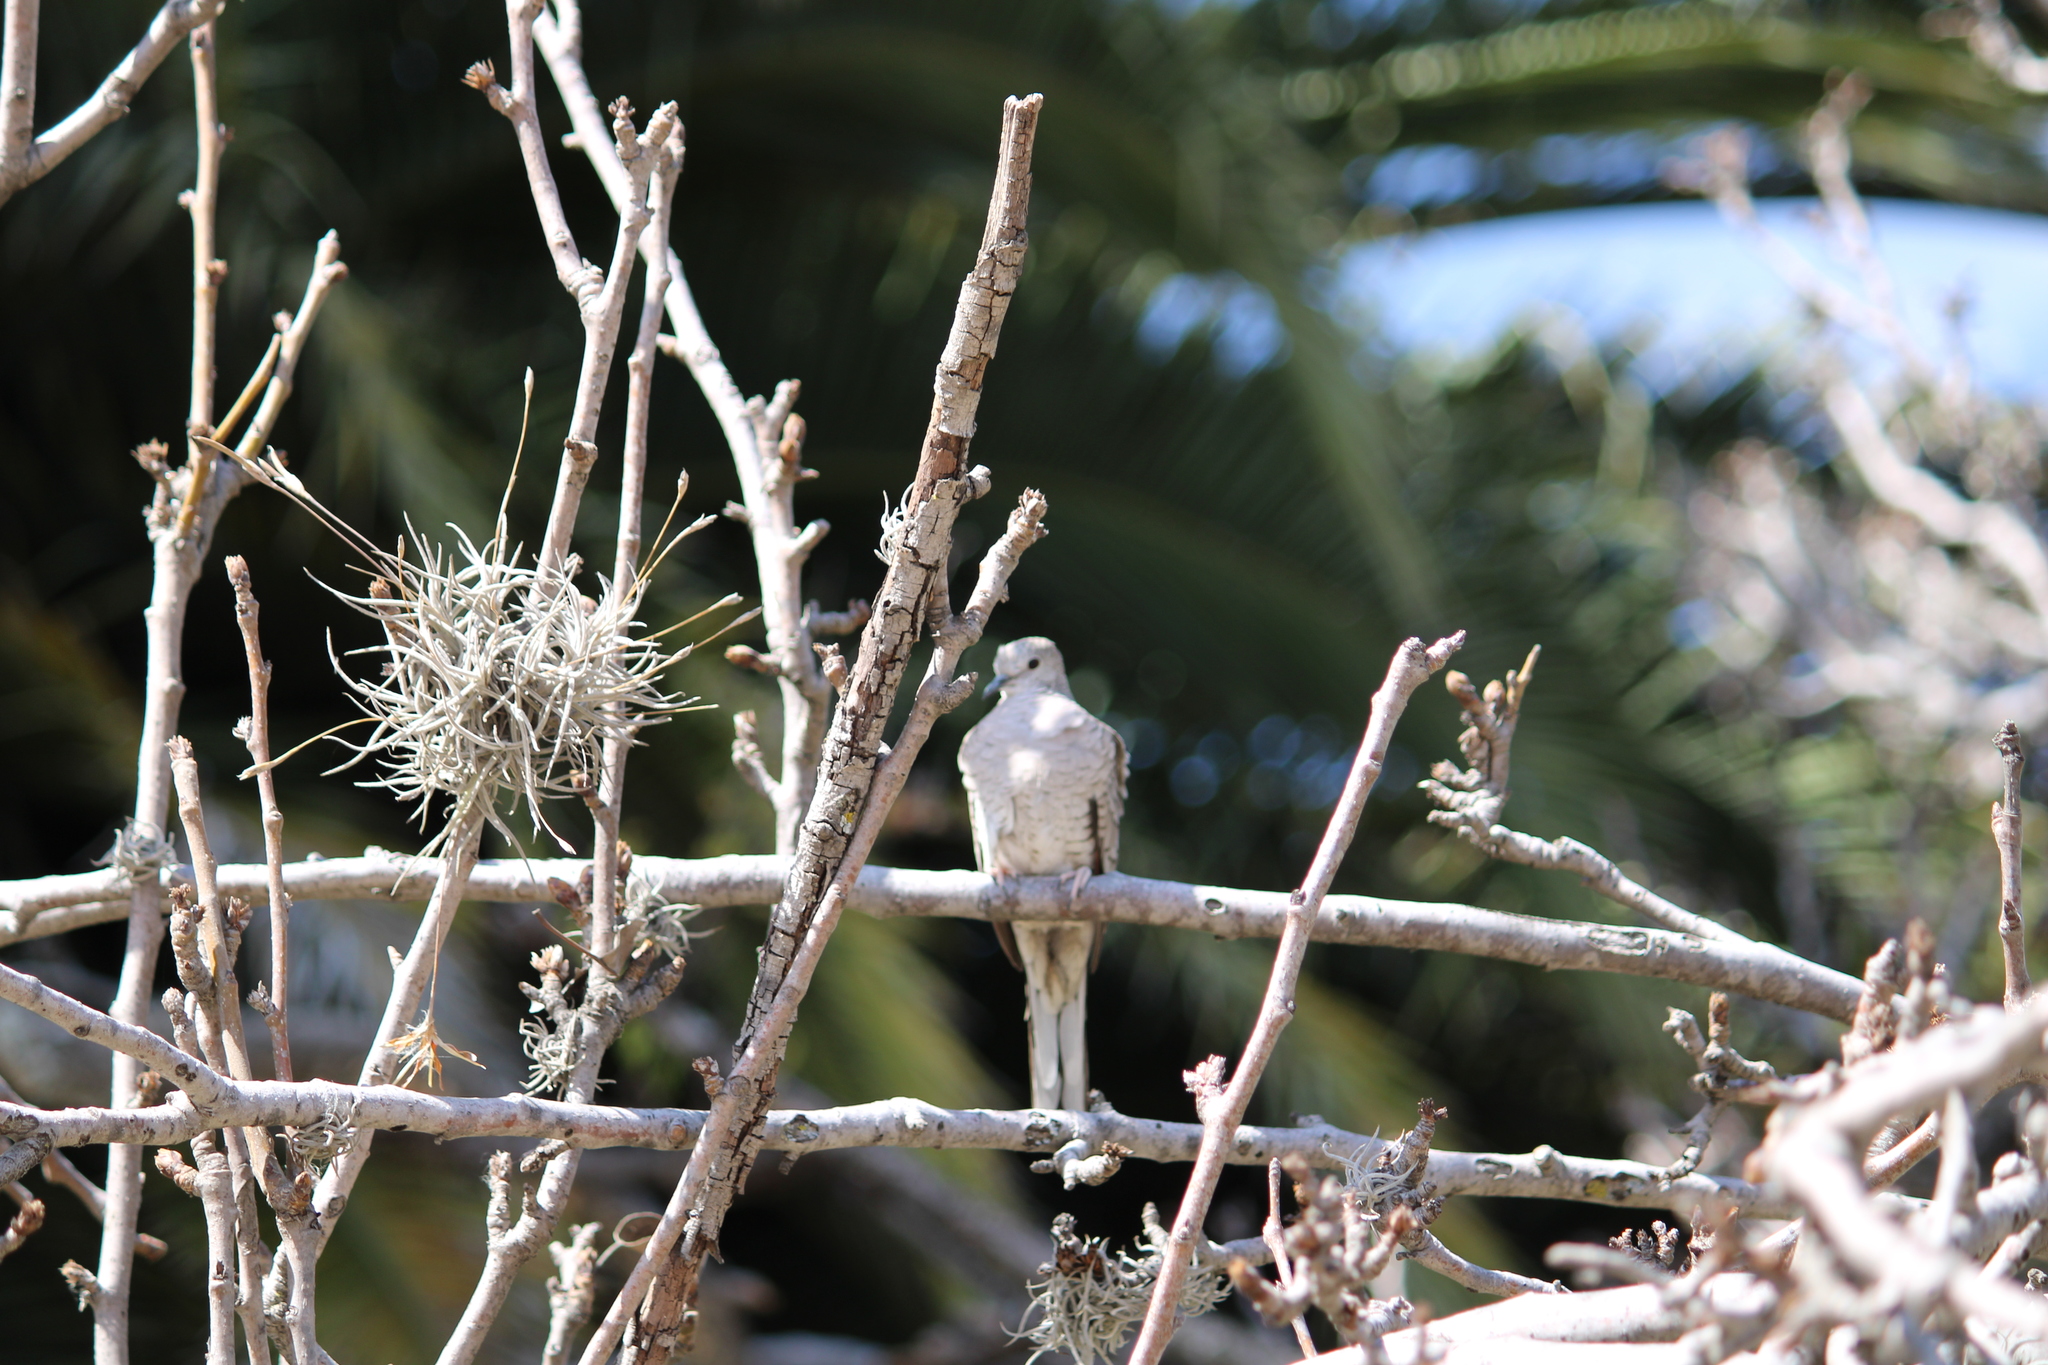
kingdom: Animalia
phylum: Chordata
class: Aves
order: Columbiformes
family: Columbidae
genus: Columbina
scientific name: Columbina inca
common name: Inca dove
